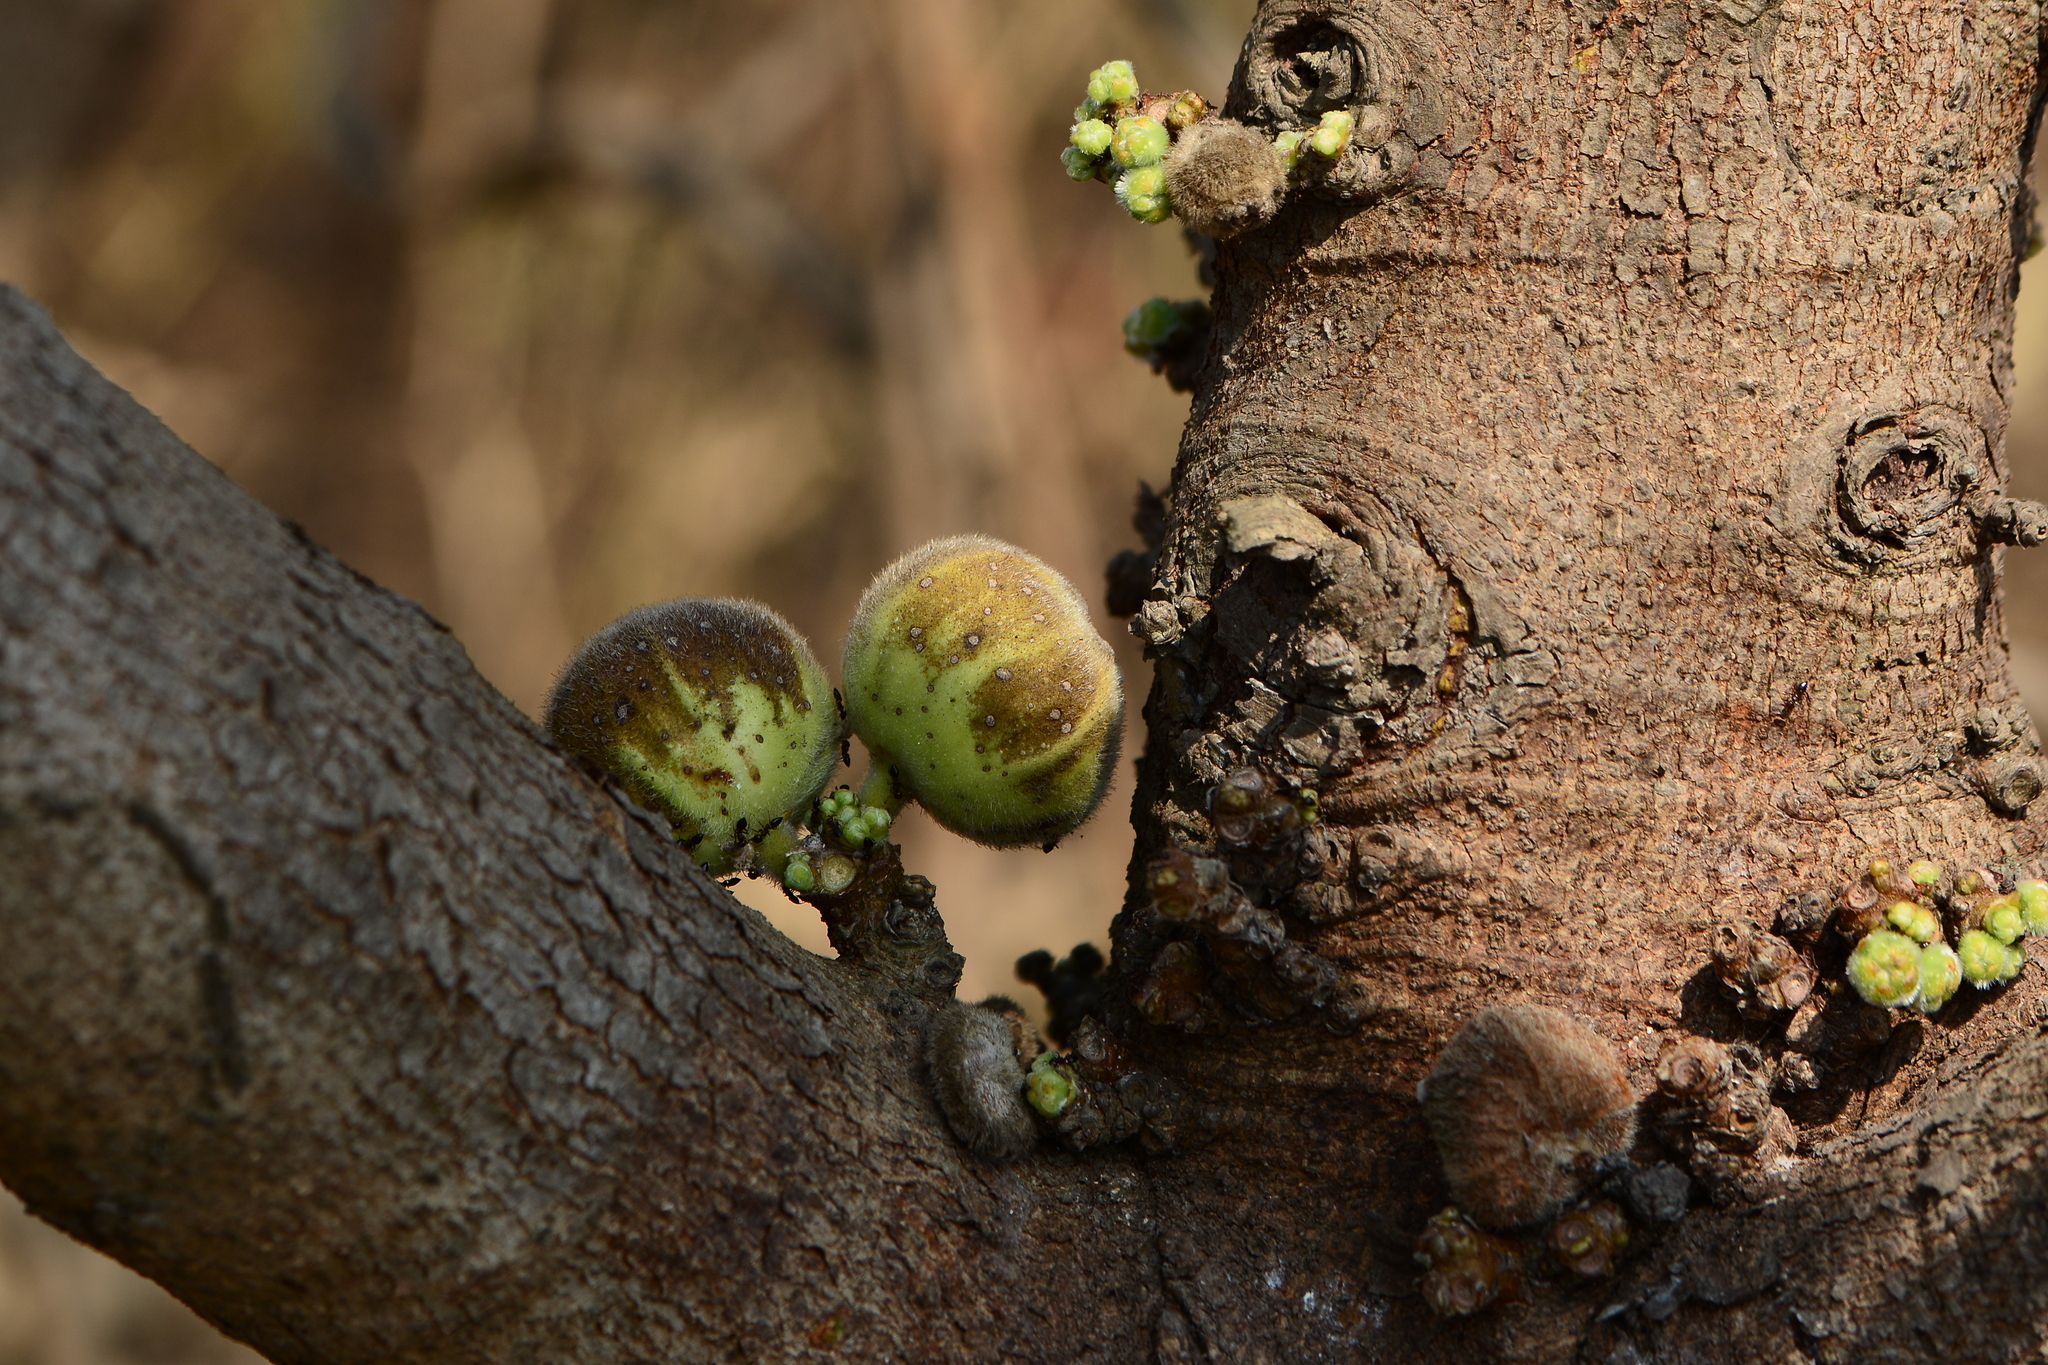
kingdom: Plantae
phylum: Tracheophyta
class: Magnoliopsida
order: Rosales
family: Moraceae
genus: Ficus
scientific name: Ficus hispida
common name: Hairy fig
